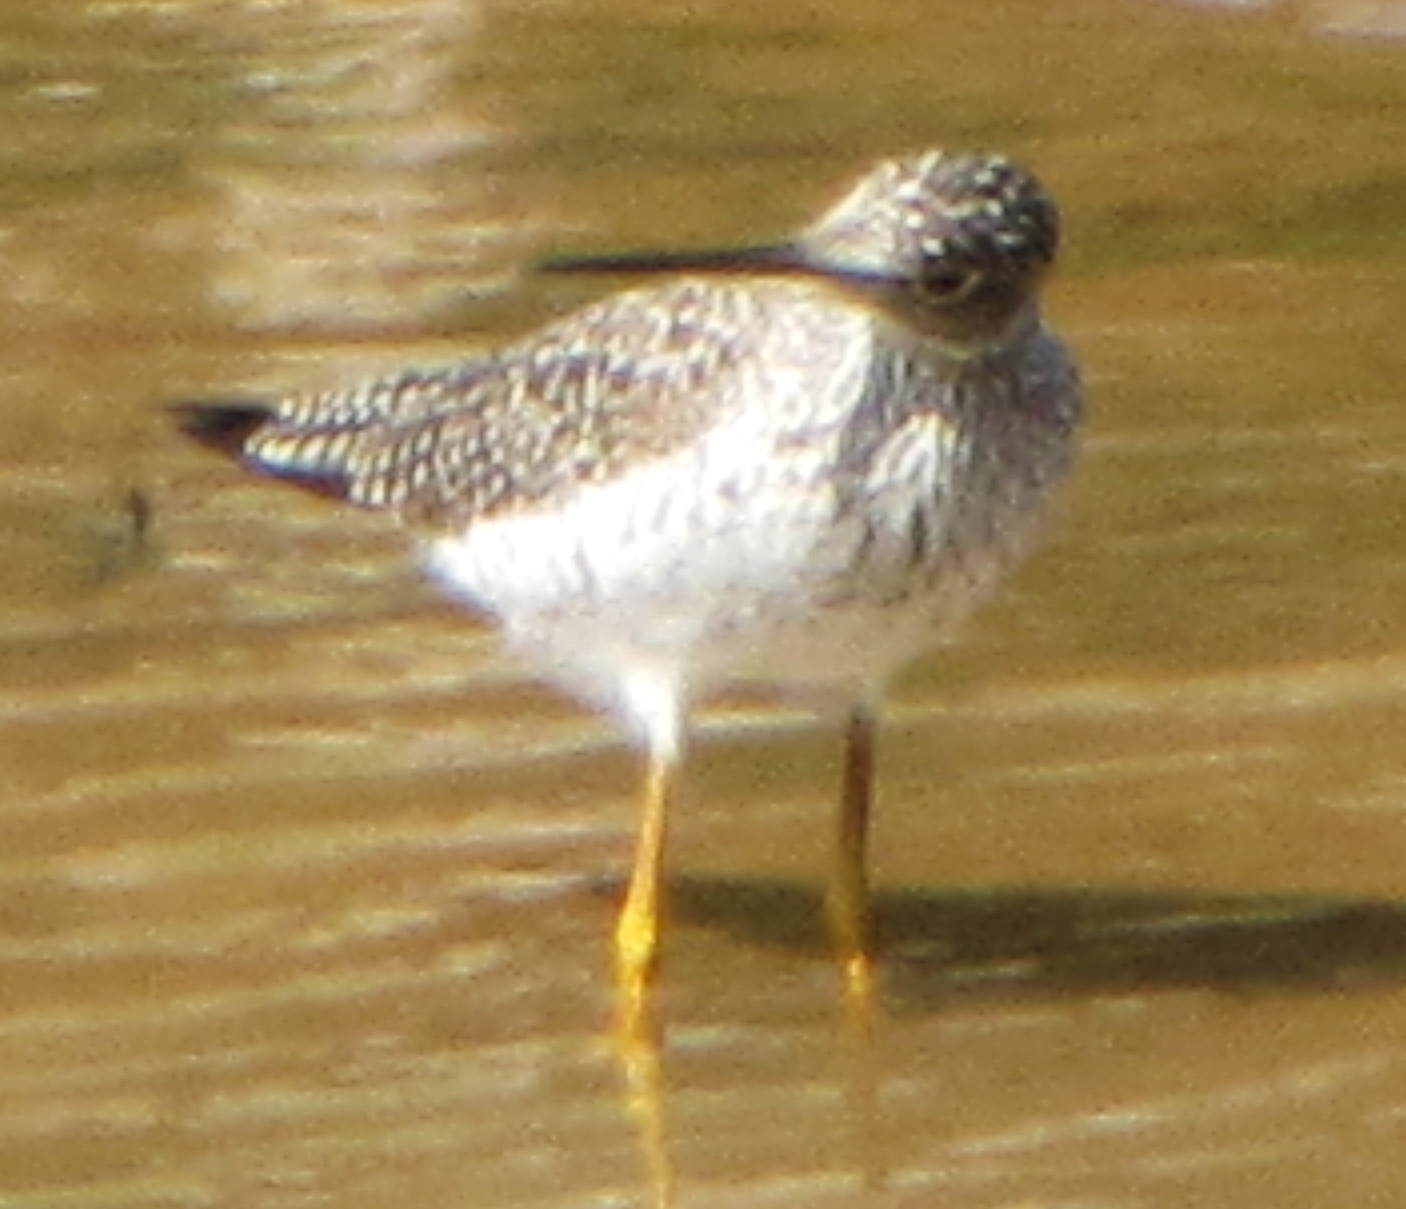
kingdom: Animalia
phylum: Chordata
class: Aves
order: Charadriiformes
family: Scolopacidae
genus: Tringa
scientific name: Tringa melanoleuca
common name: Greater yellowlegs
